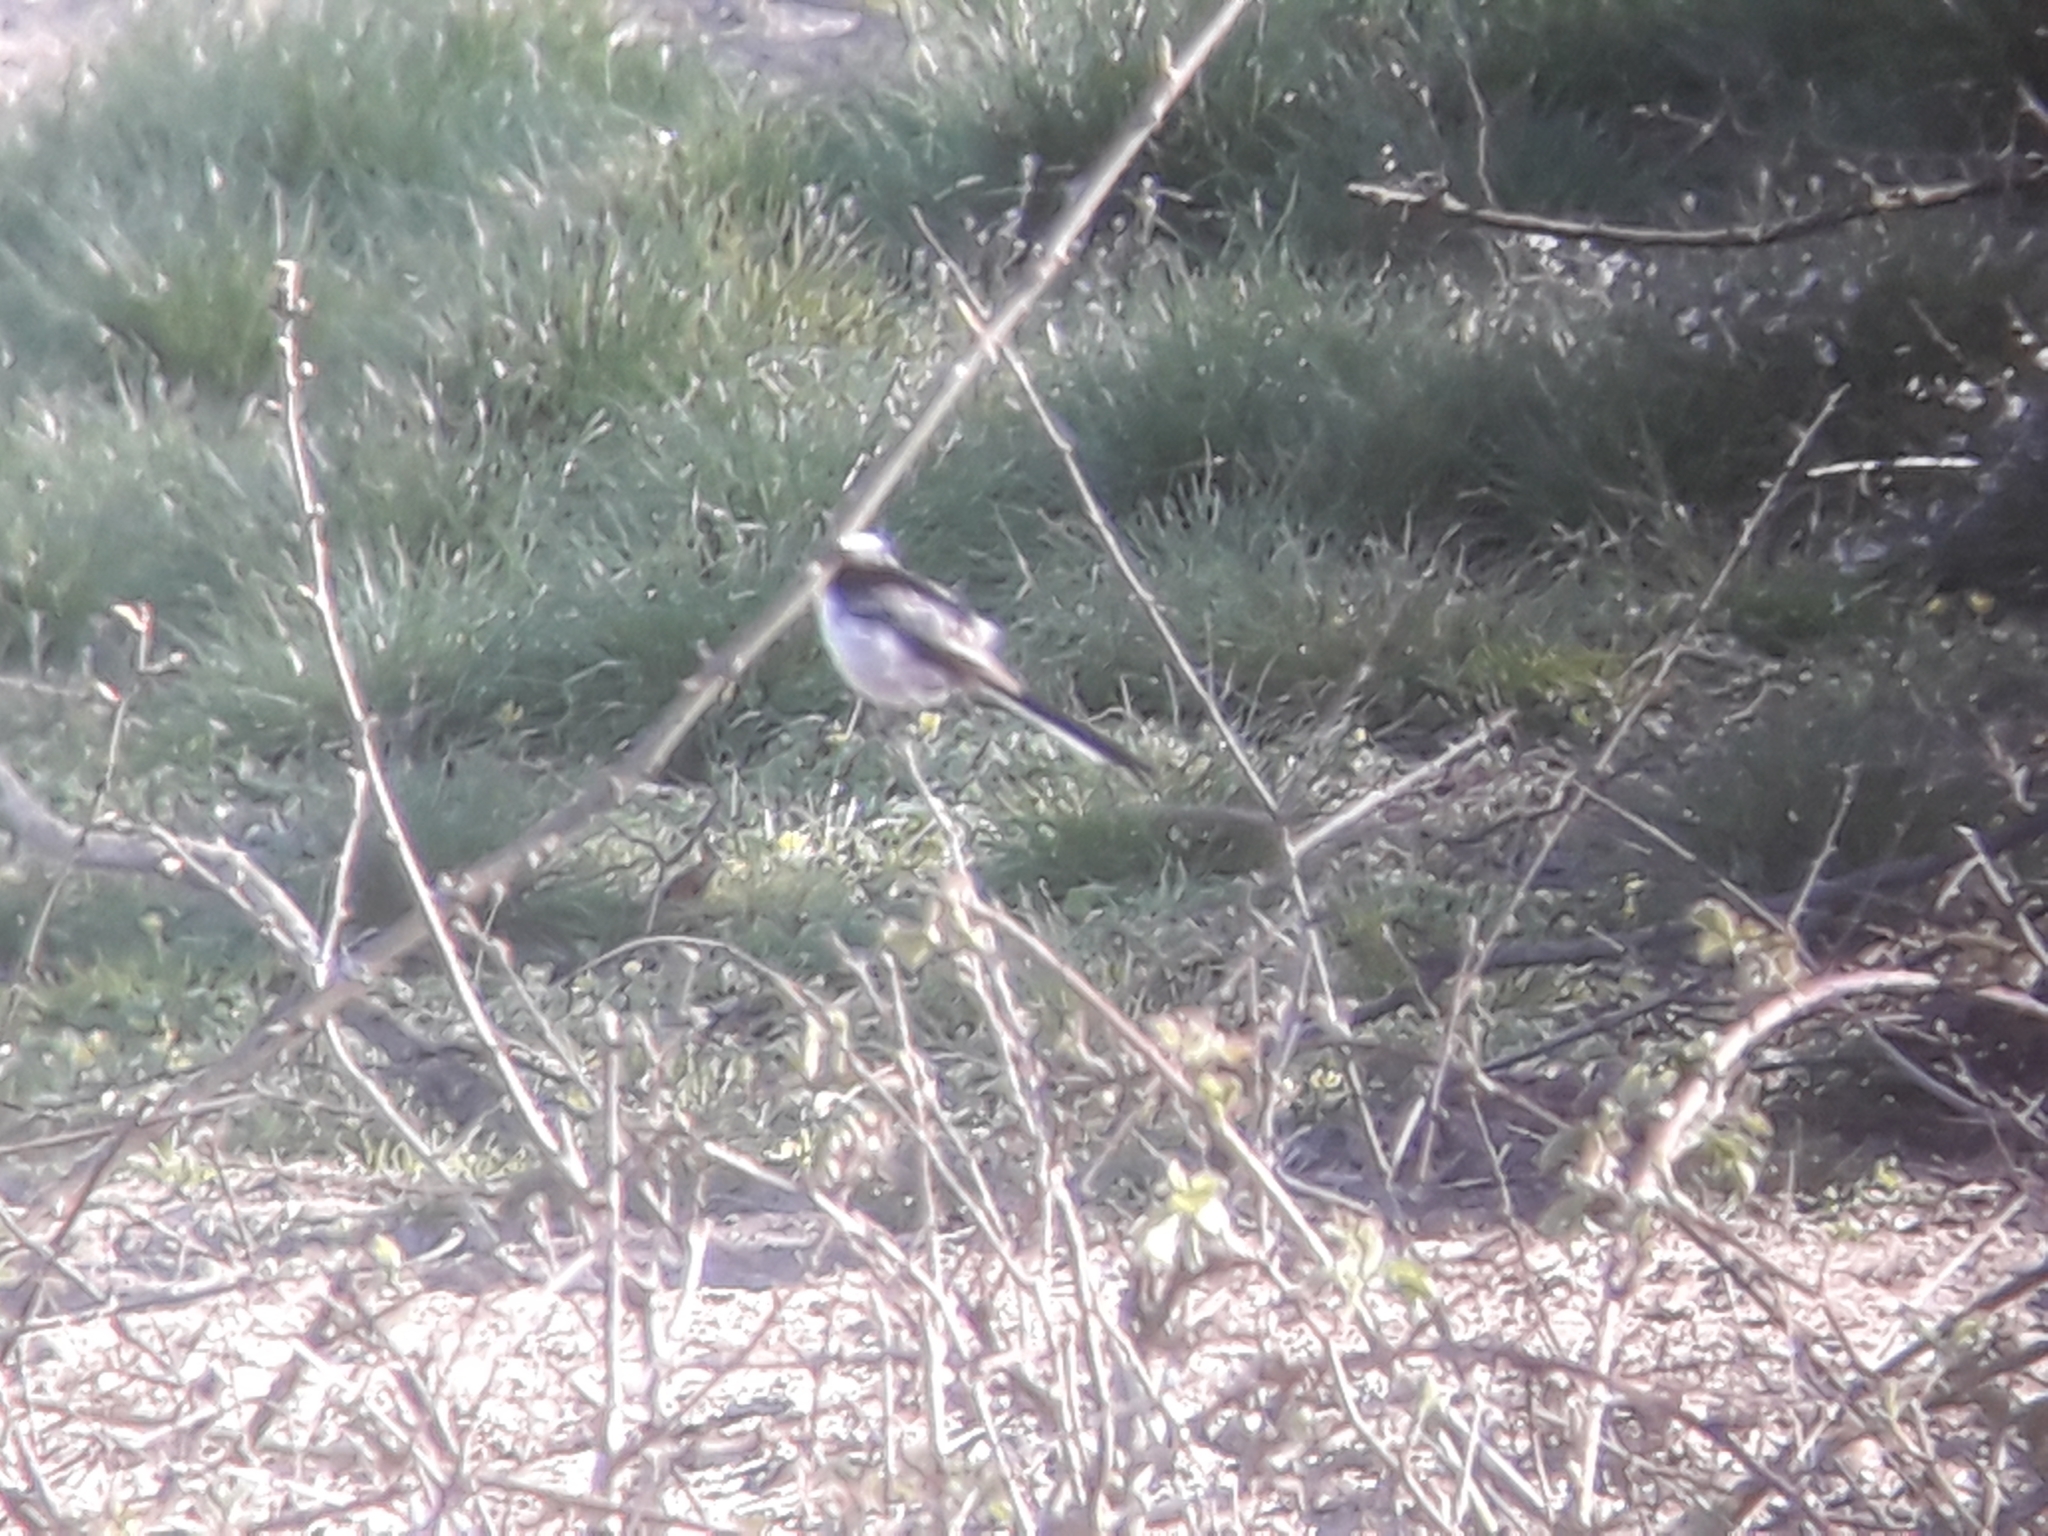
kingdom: Animalia
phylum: Chordata
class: Aves
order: Passeriformes
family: Aegithalidae
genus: Aegithalos
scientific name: Aegithalos caudatus
